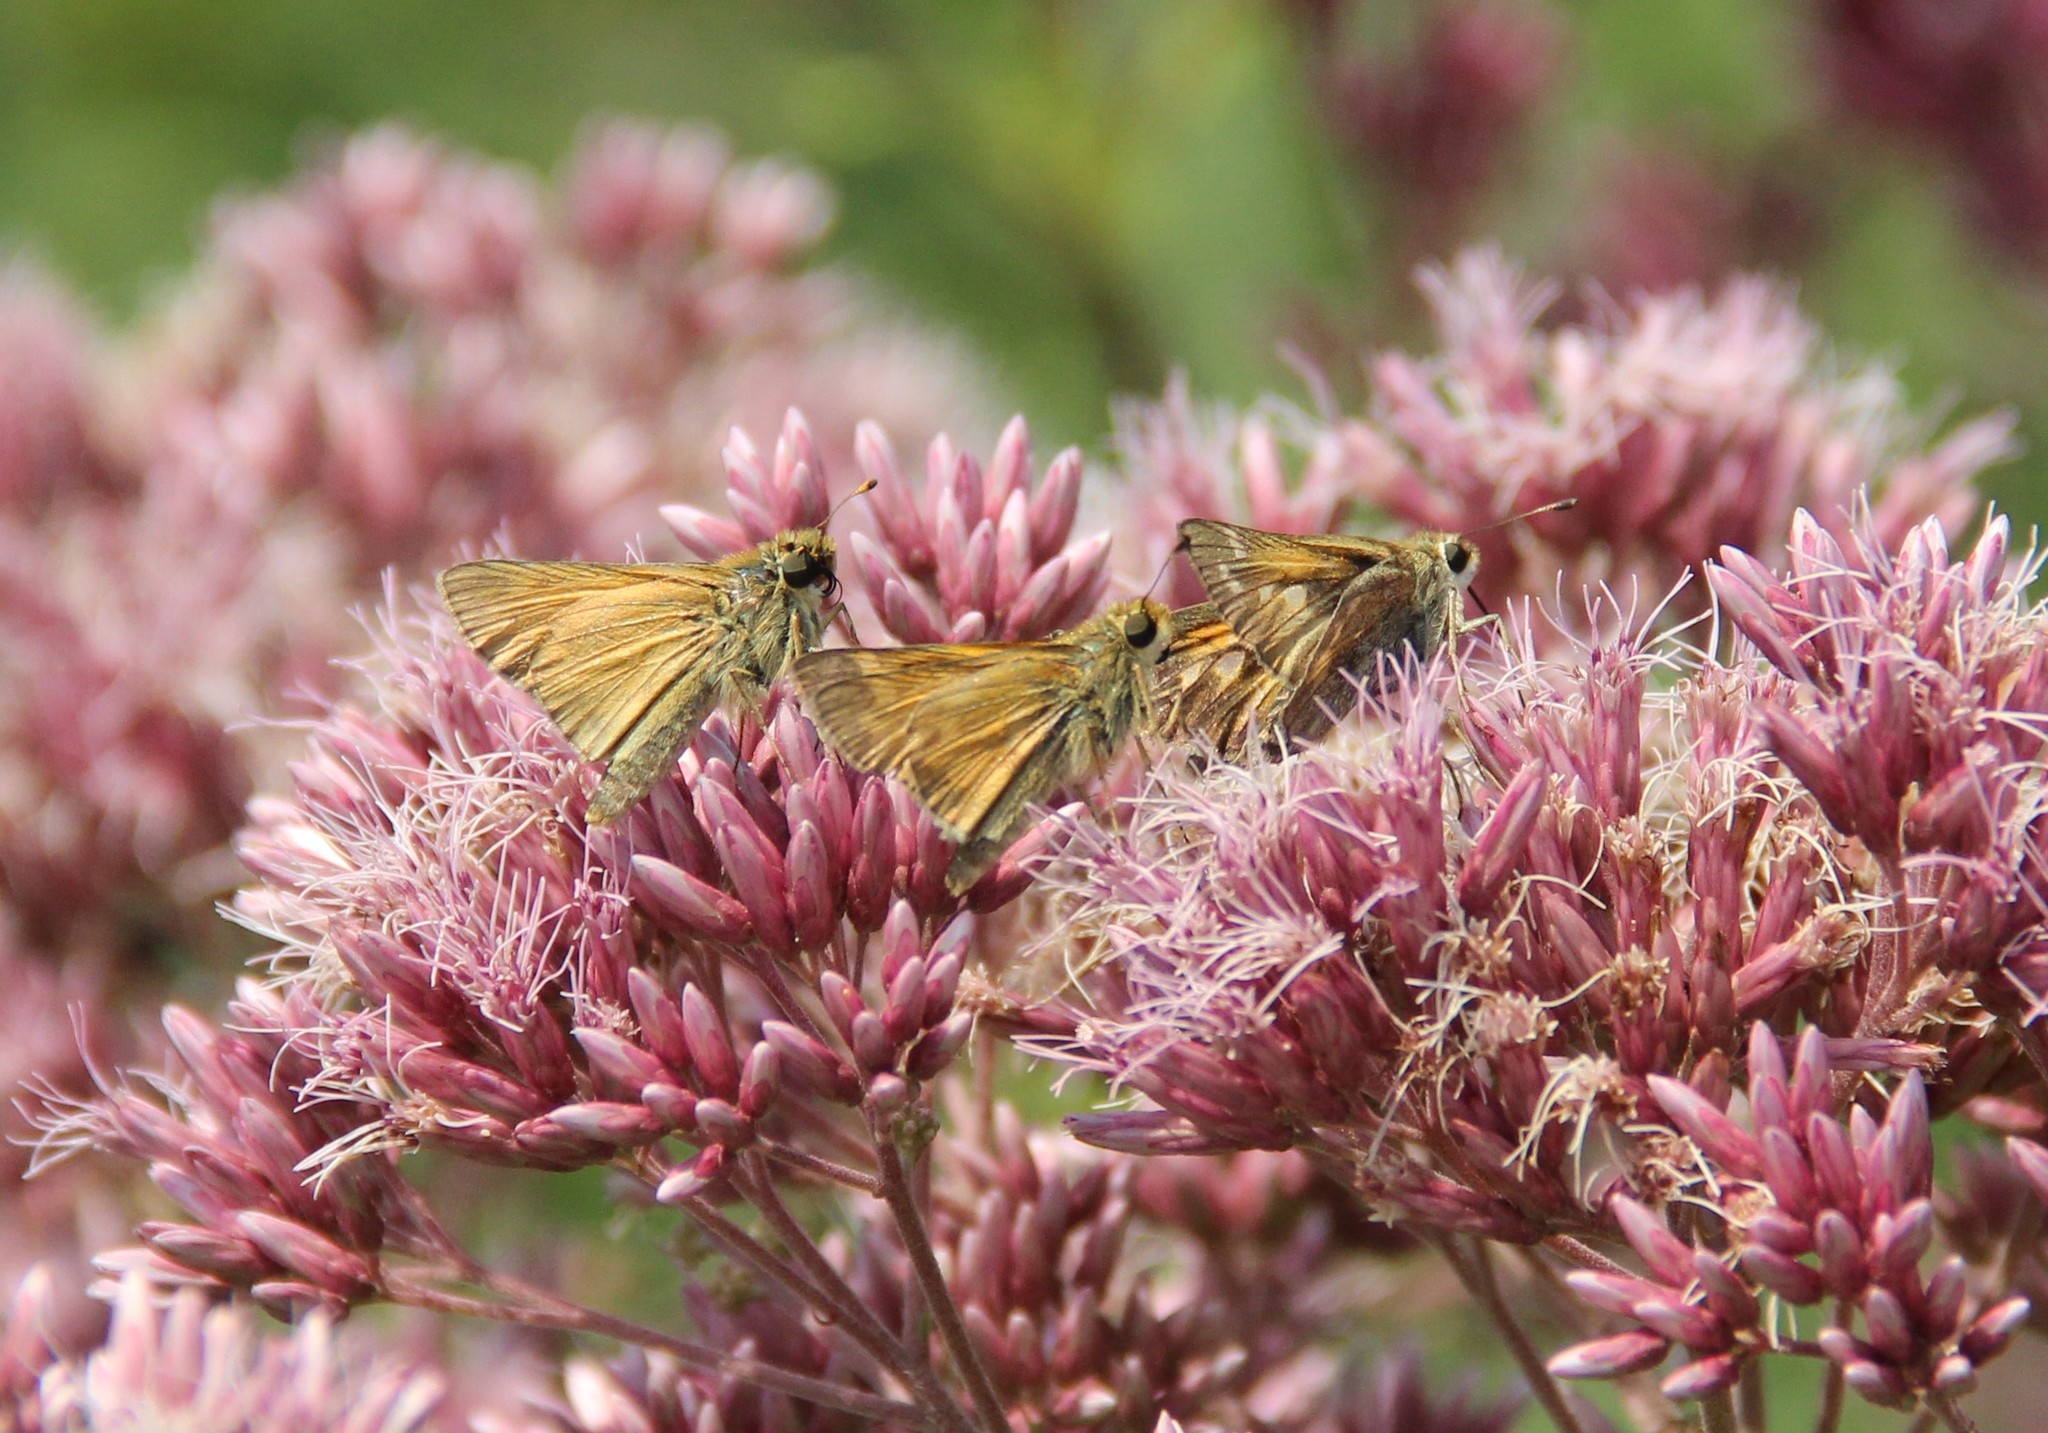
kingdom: Animalia
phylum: Arthropoda
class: Insecta
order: Lepidoptera
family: Hesperiidae
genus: Atalopedes
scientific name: Atalopedes
